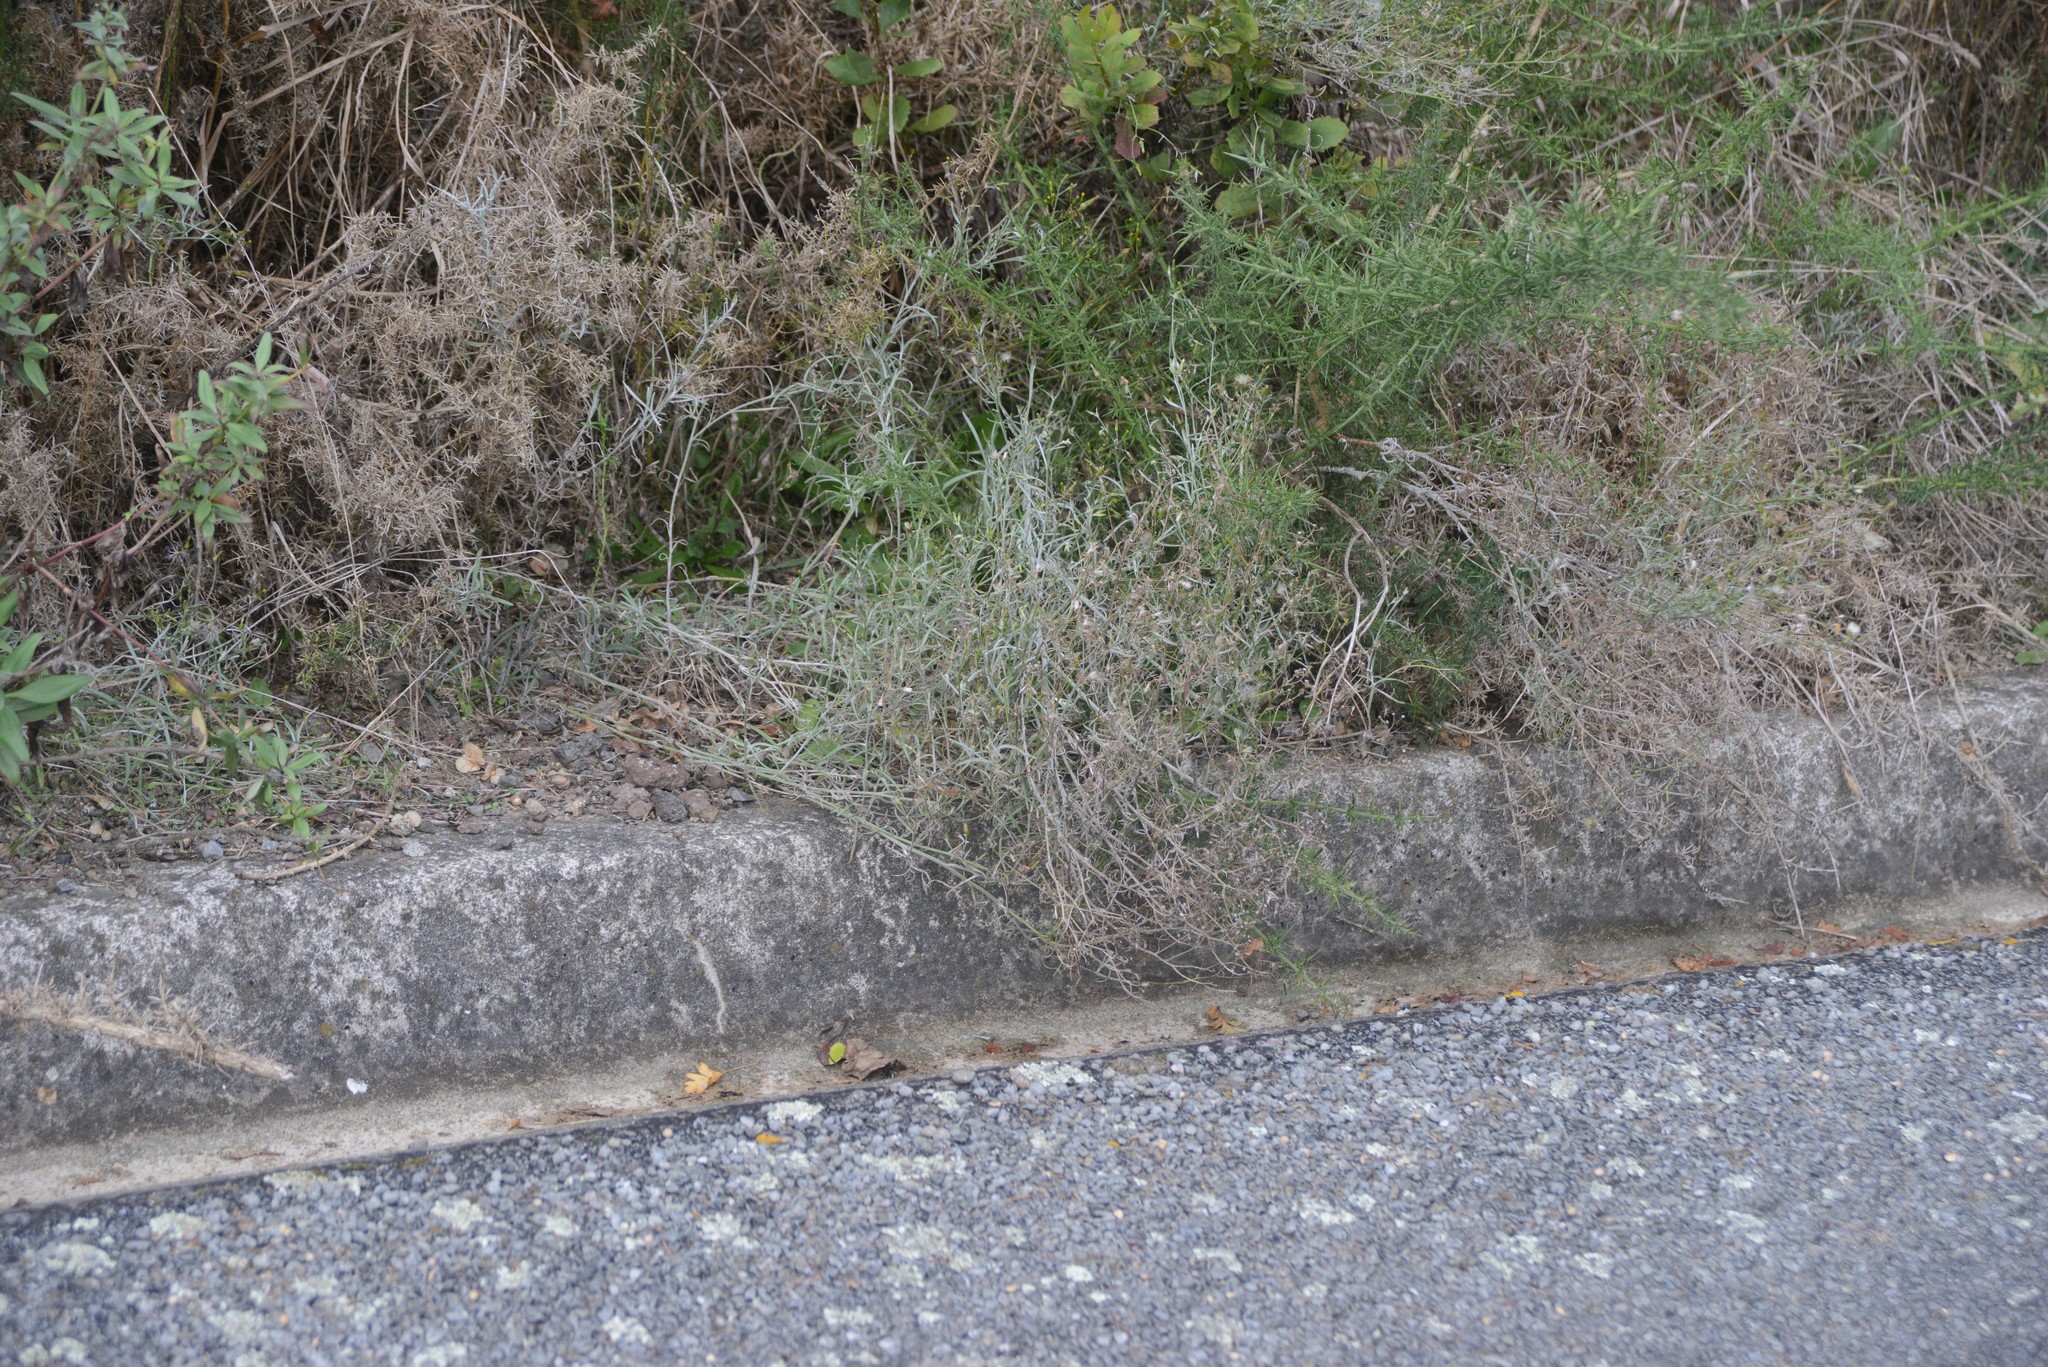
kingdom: Plantae
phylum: Tracheophyta
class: Magnoliopsida
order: Asterales
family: Asteraceae
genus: Senecio
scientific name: Senecio quadridentatus
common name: Cotton fireweed
